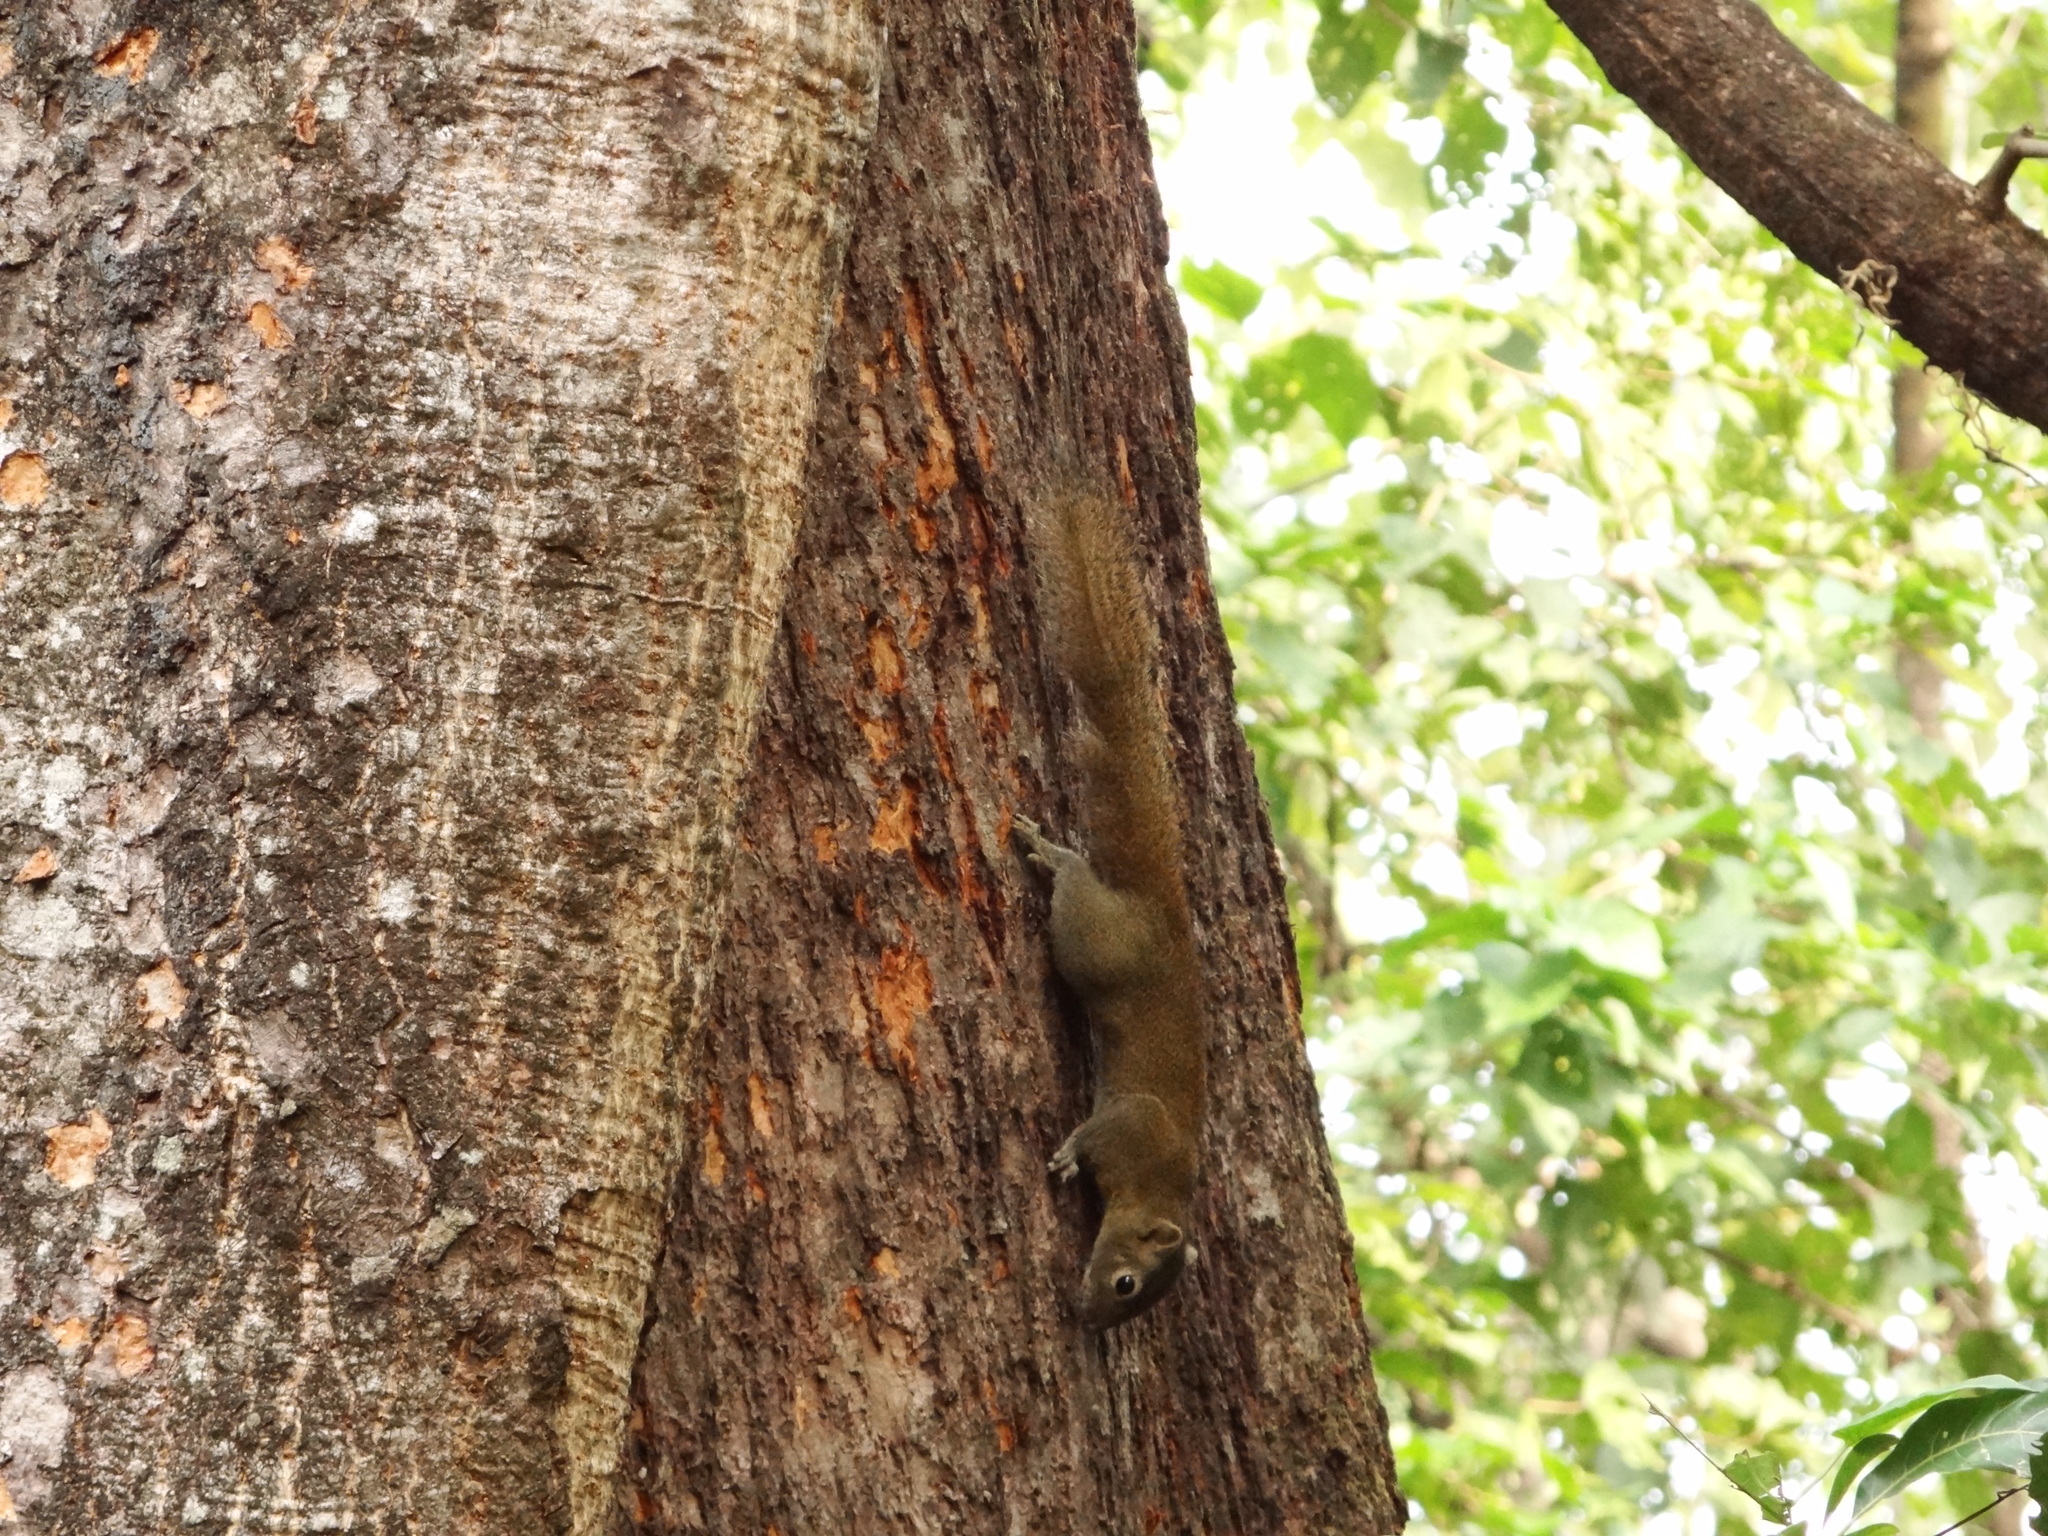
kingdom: Animalia
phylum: Chordata
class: Mammalia
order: Rodentia
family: Sciuridae
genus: Callosciurus
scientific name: Callosciurus pygerythrus
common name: Irrawaddy squirrel
